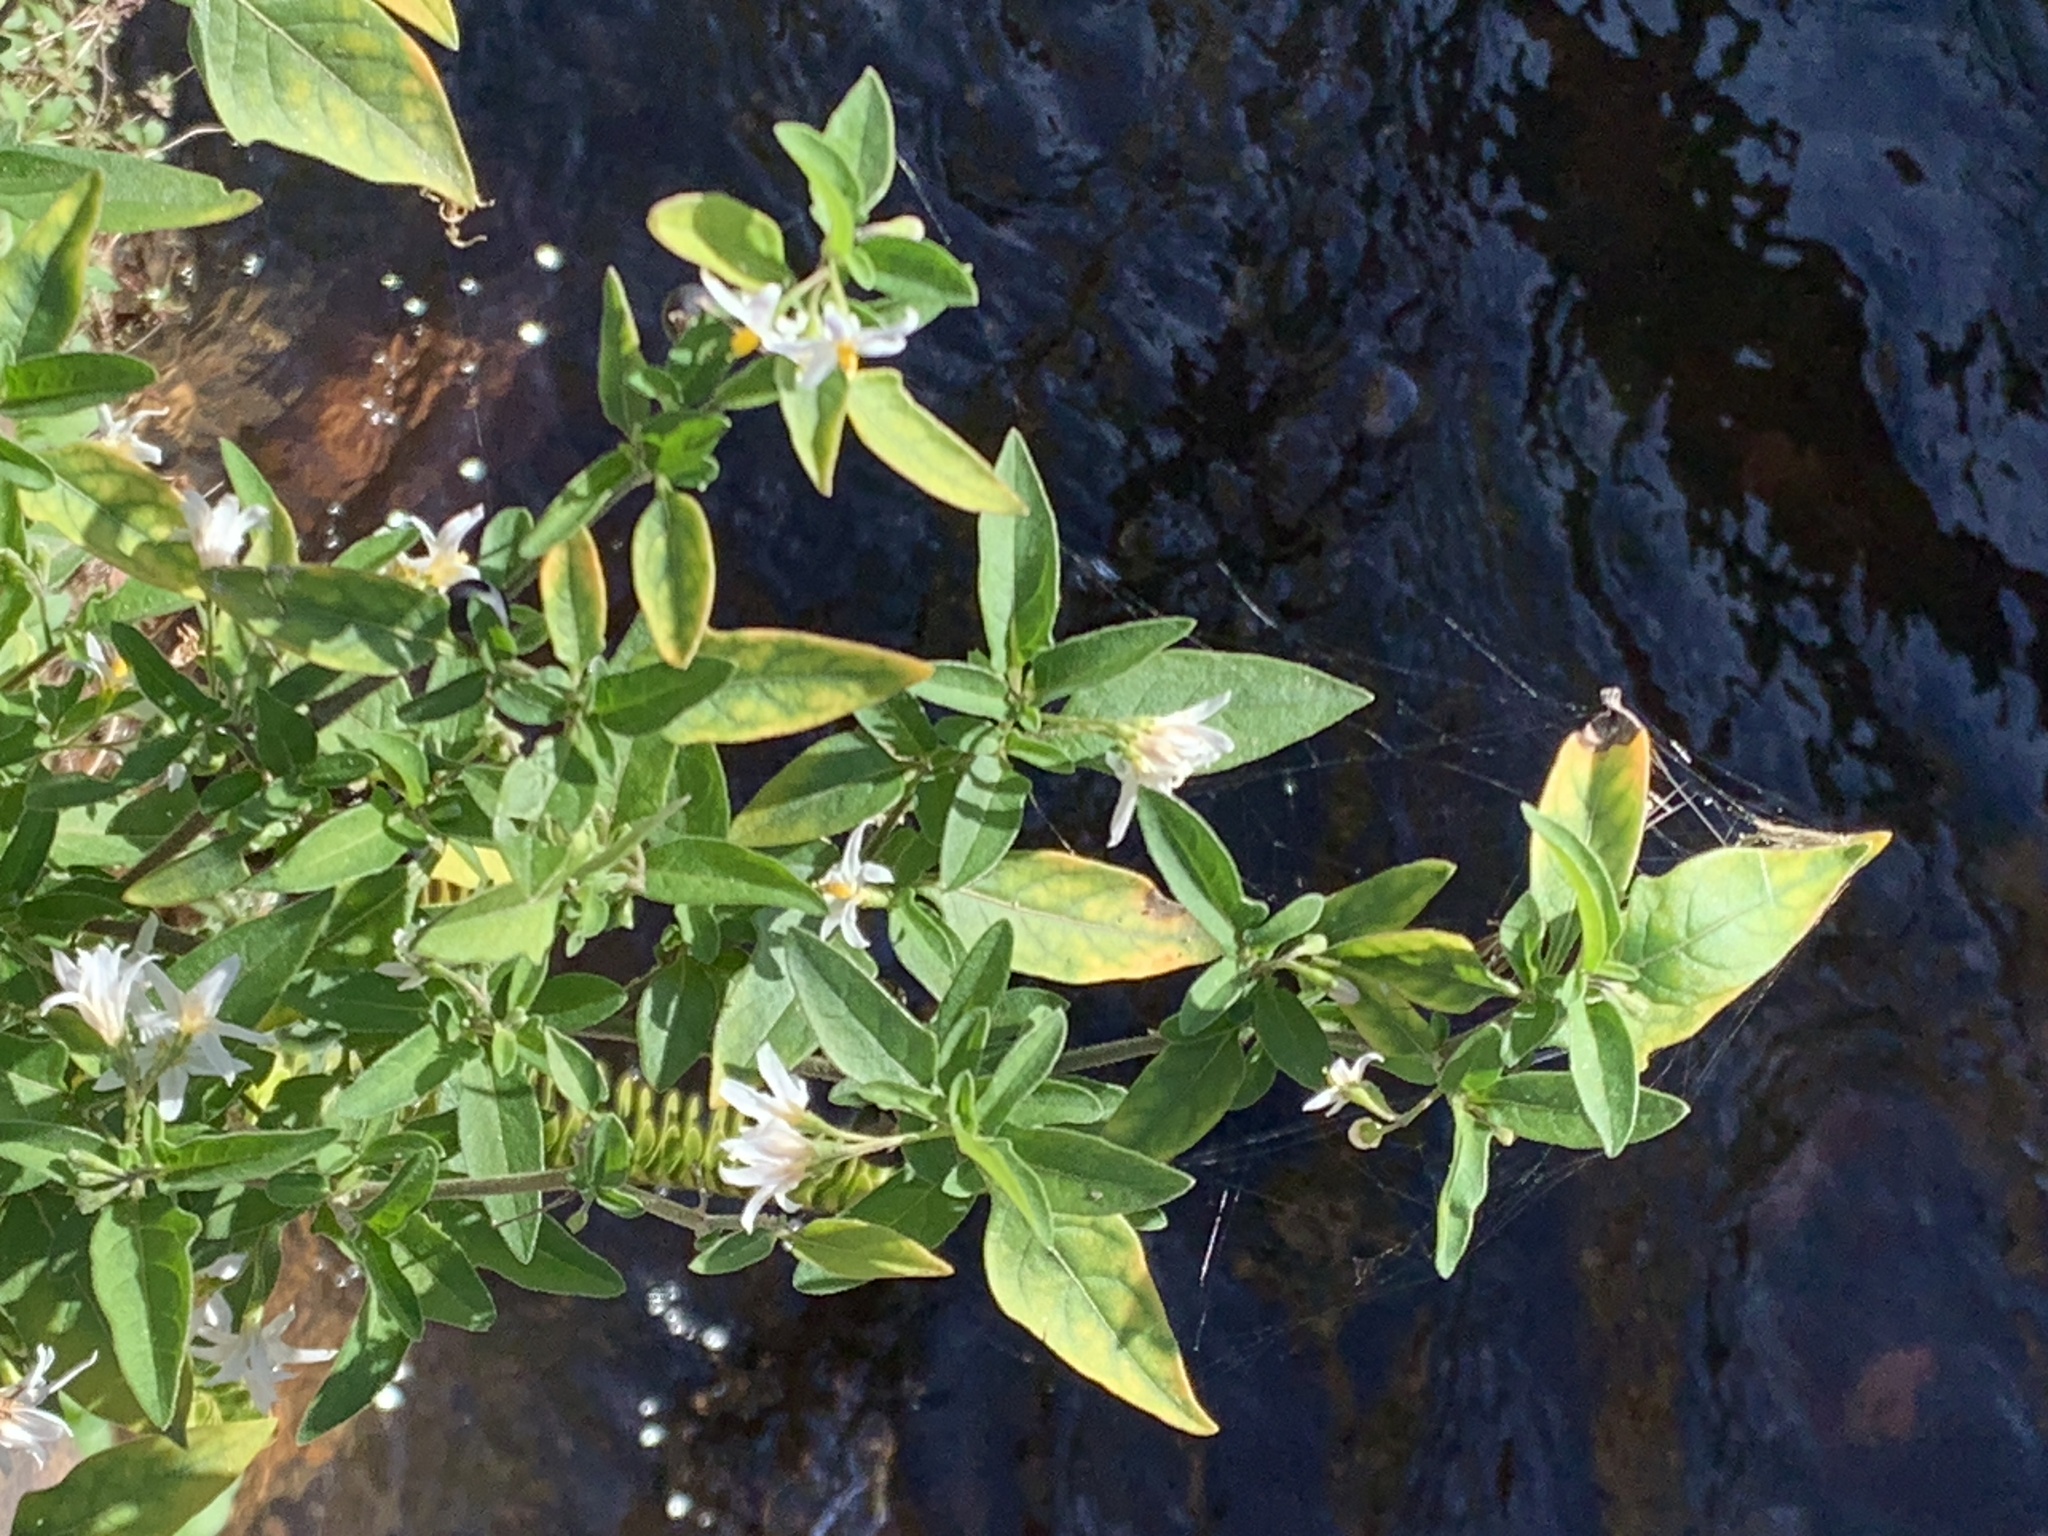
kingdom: Plantae
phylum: Tracheophyta
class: Magnoliopsida
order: Solanales
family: Solanaceae
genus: Solanum
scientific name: Solanum chenopodioides
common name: Tall nightshade
